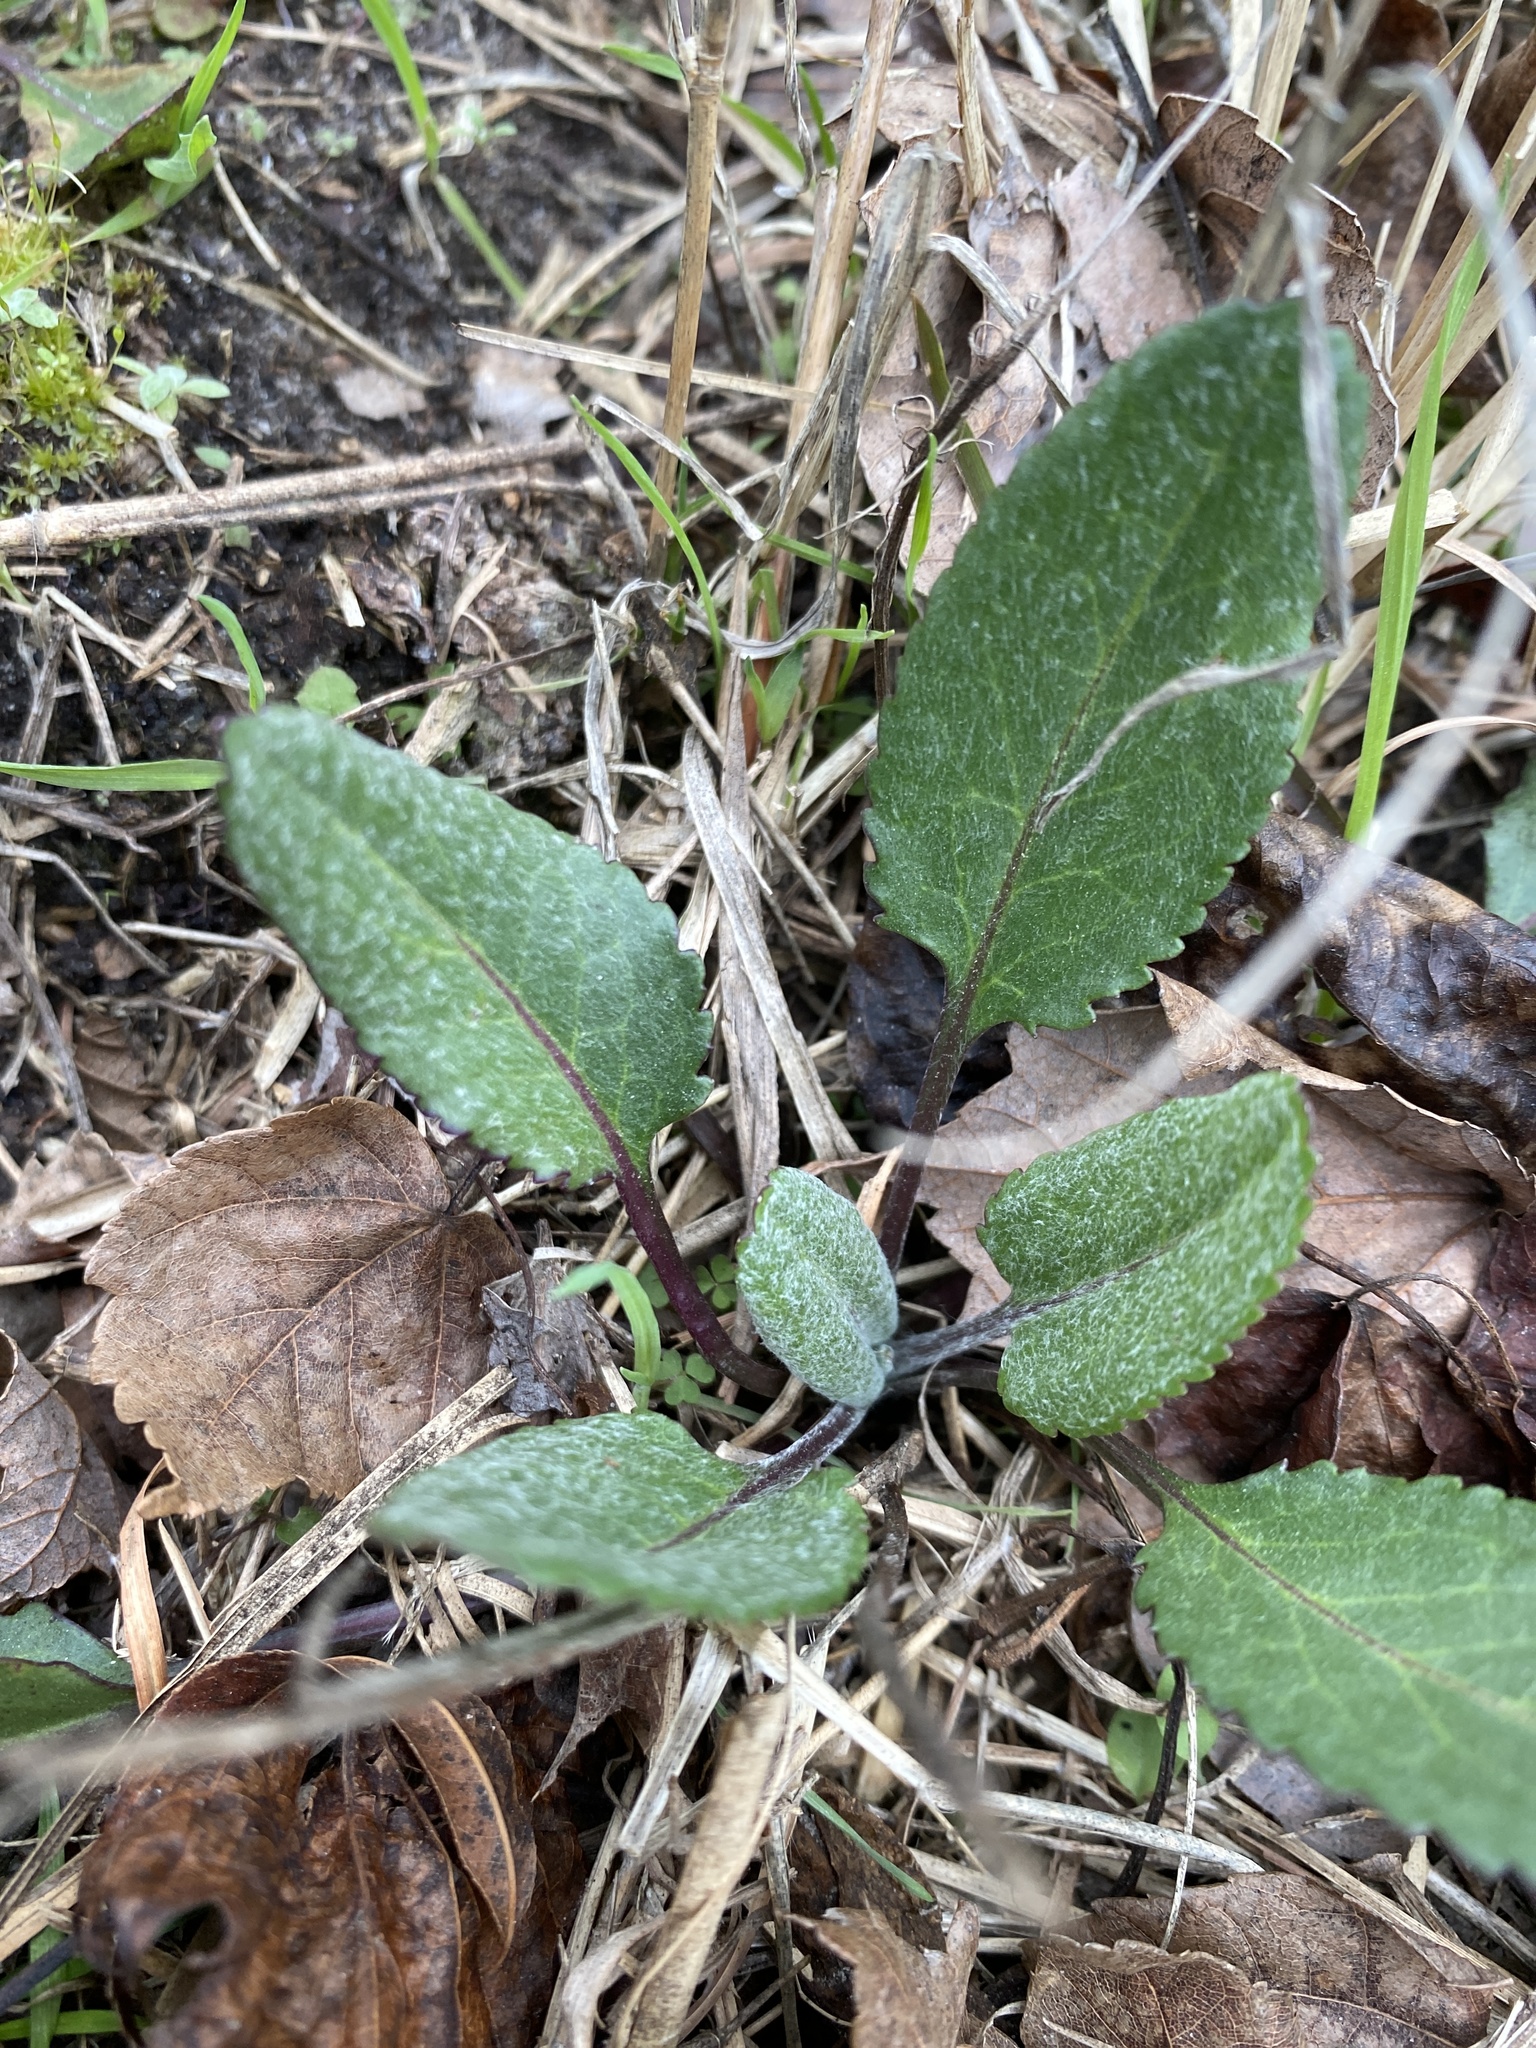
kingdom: Plantae
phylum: Tracheophyta
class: Magnoliopsida
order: Asterales
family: Asteraceae
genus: Packera
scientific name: Packera dubia
